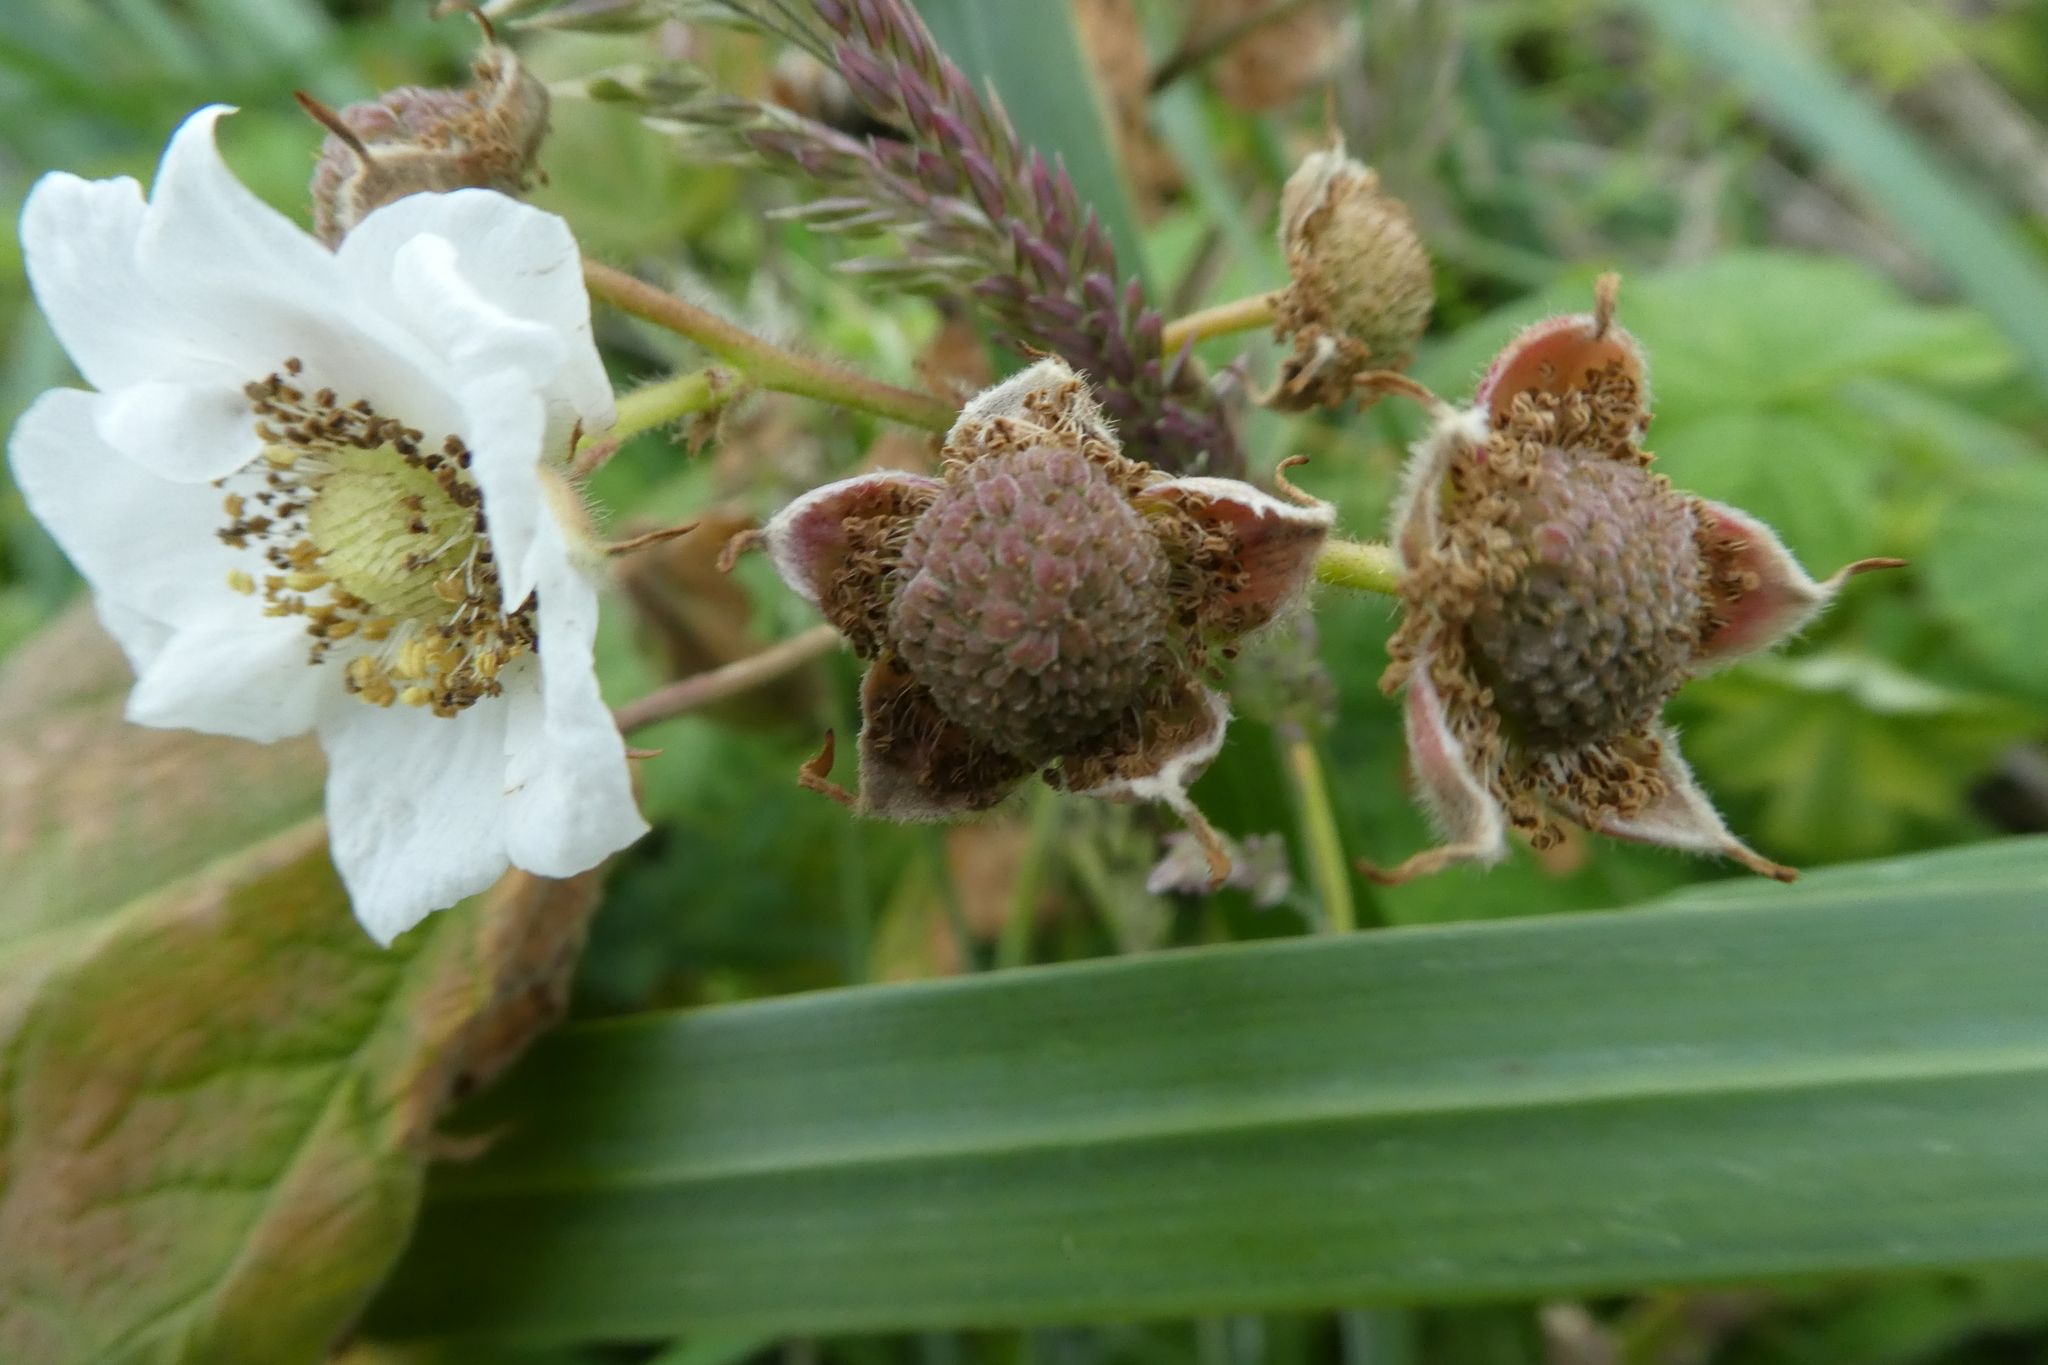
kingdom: Plantae
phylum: Tracheophyta
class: Magnoliopsida
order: Rosales
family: Rosaceae
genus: Rubus
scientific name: Rubus parviflorus
